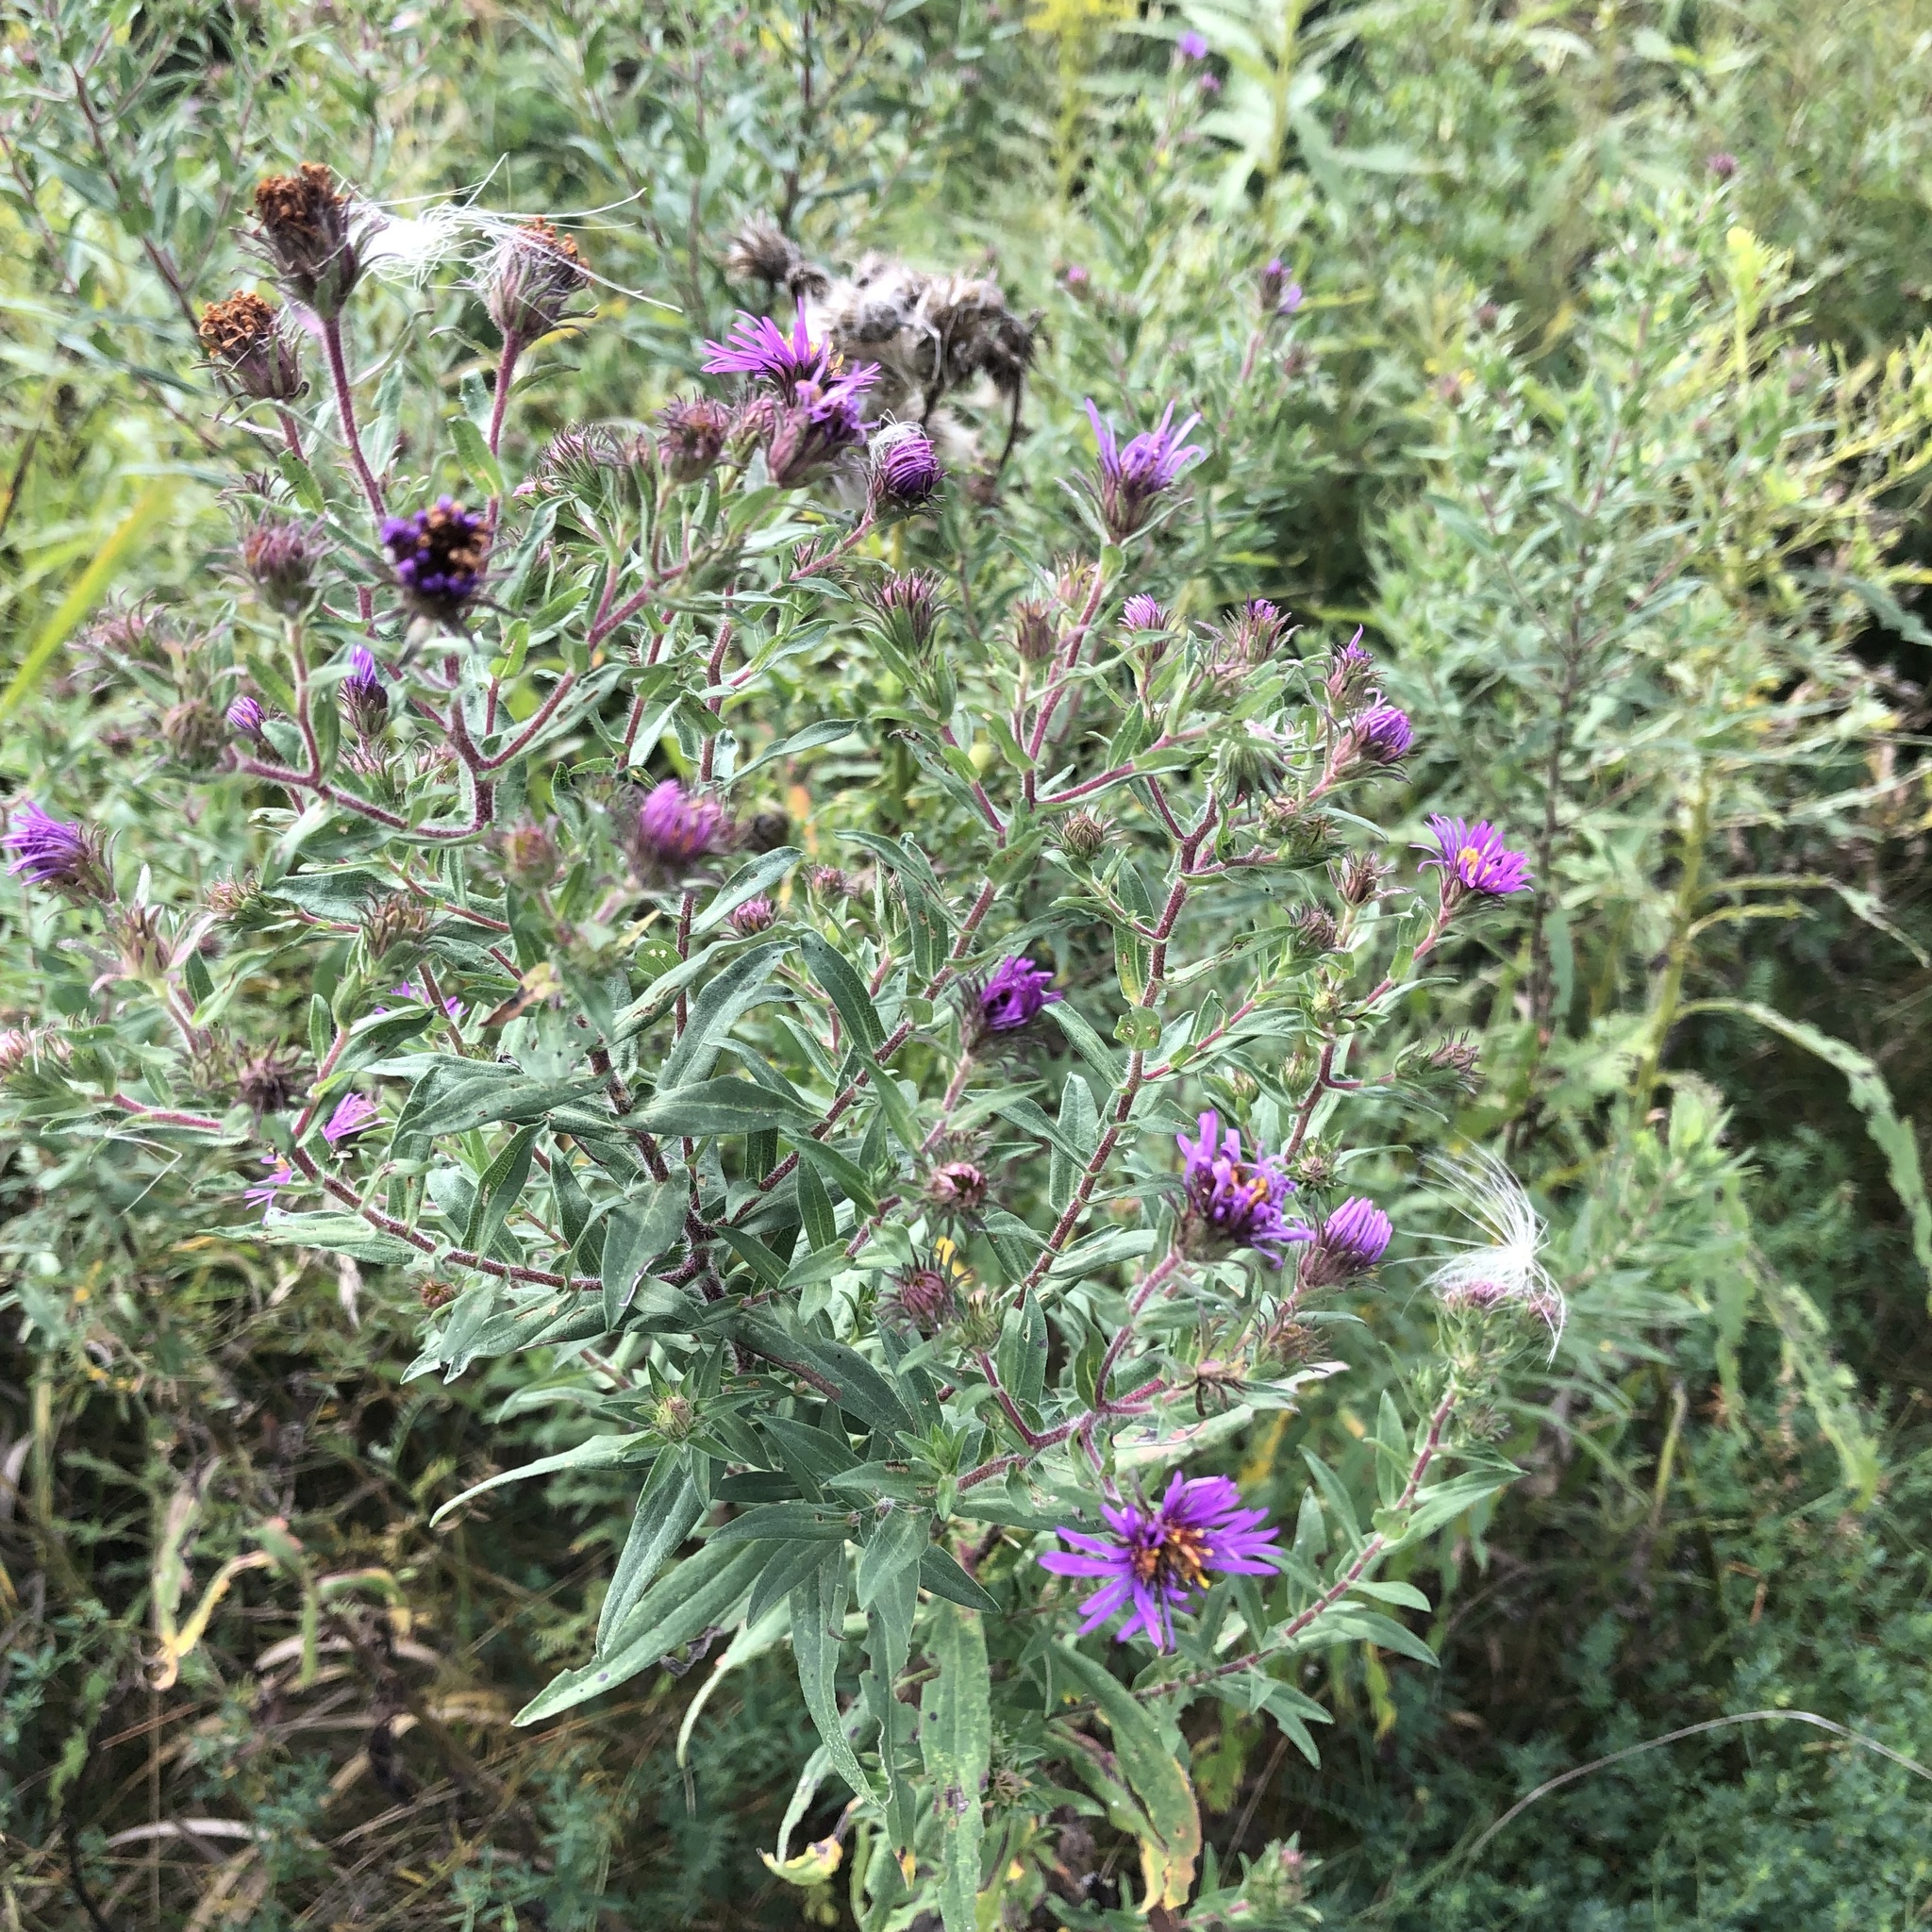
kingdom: Plantae
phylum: Tracheophyta
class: Magnoliopsida
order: Asterales
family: Asteraceae
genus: Symphyotrichum
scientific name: Symphyotrichum novae-angliae
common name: Michaelmas daisy
